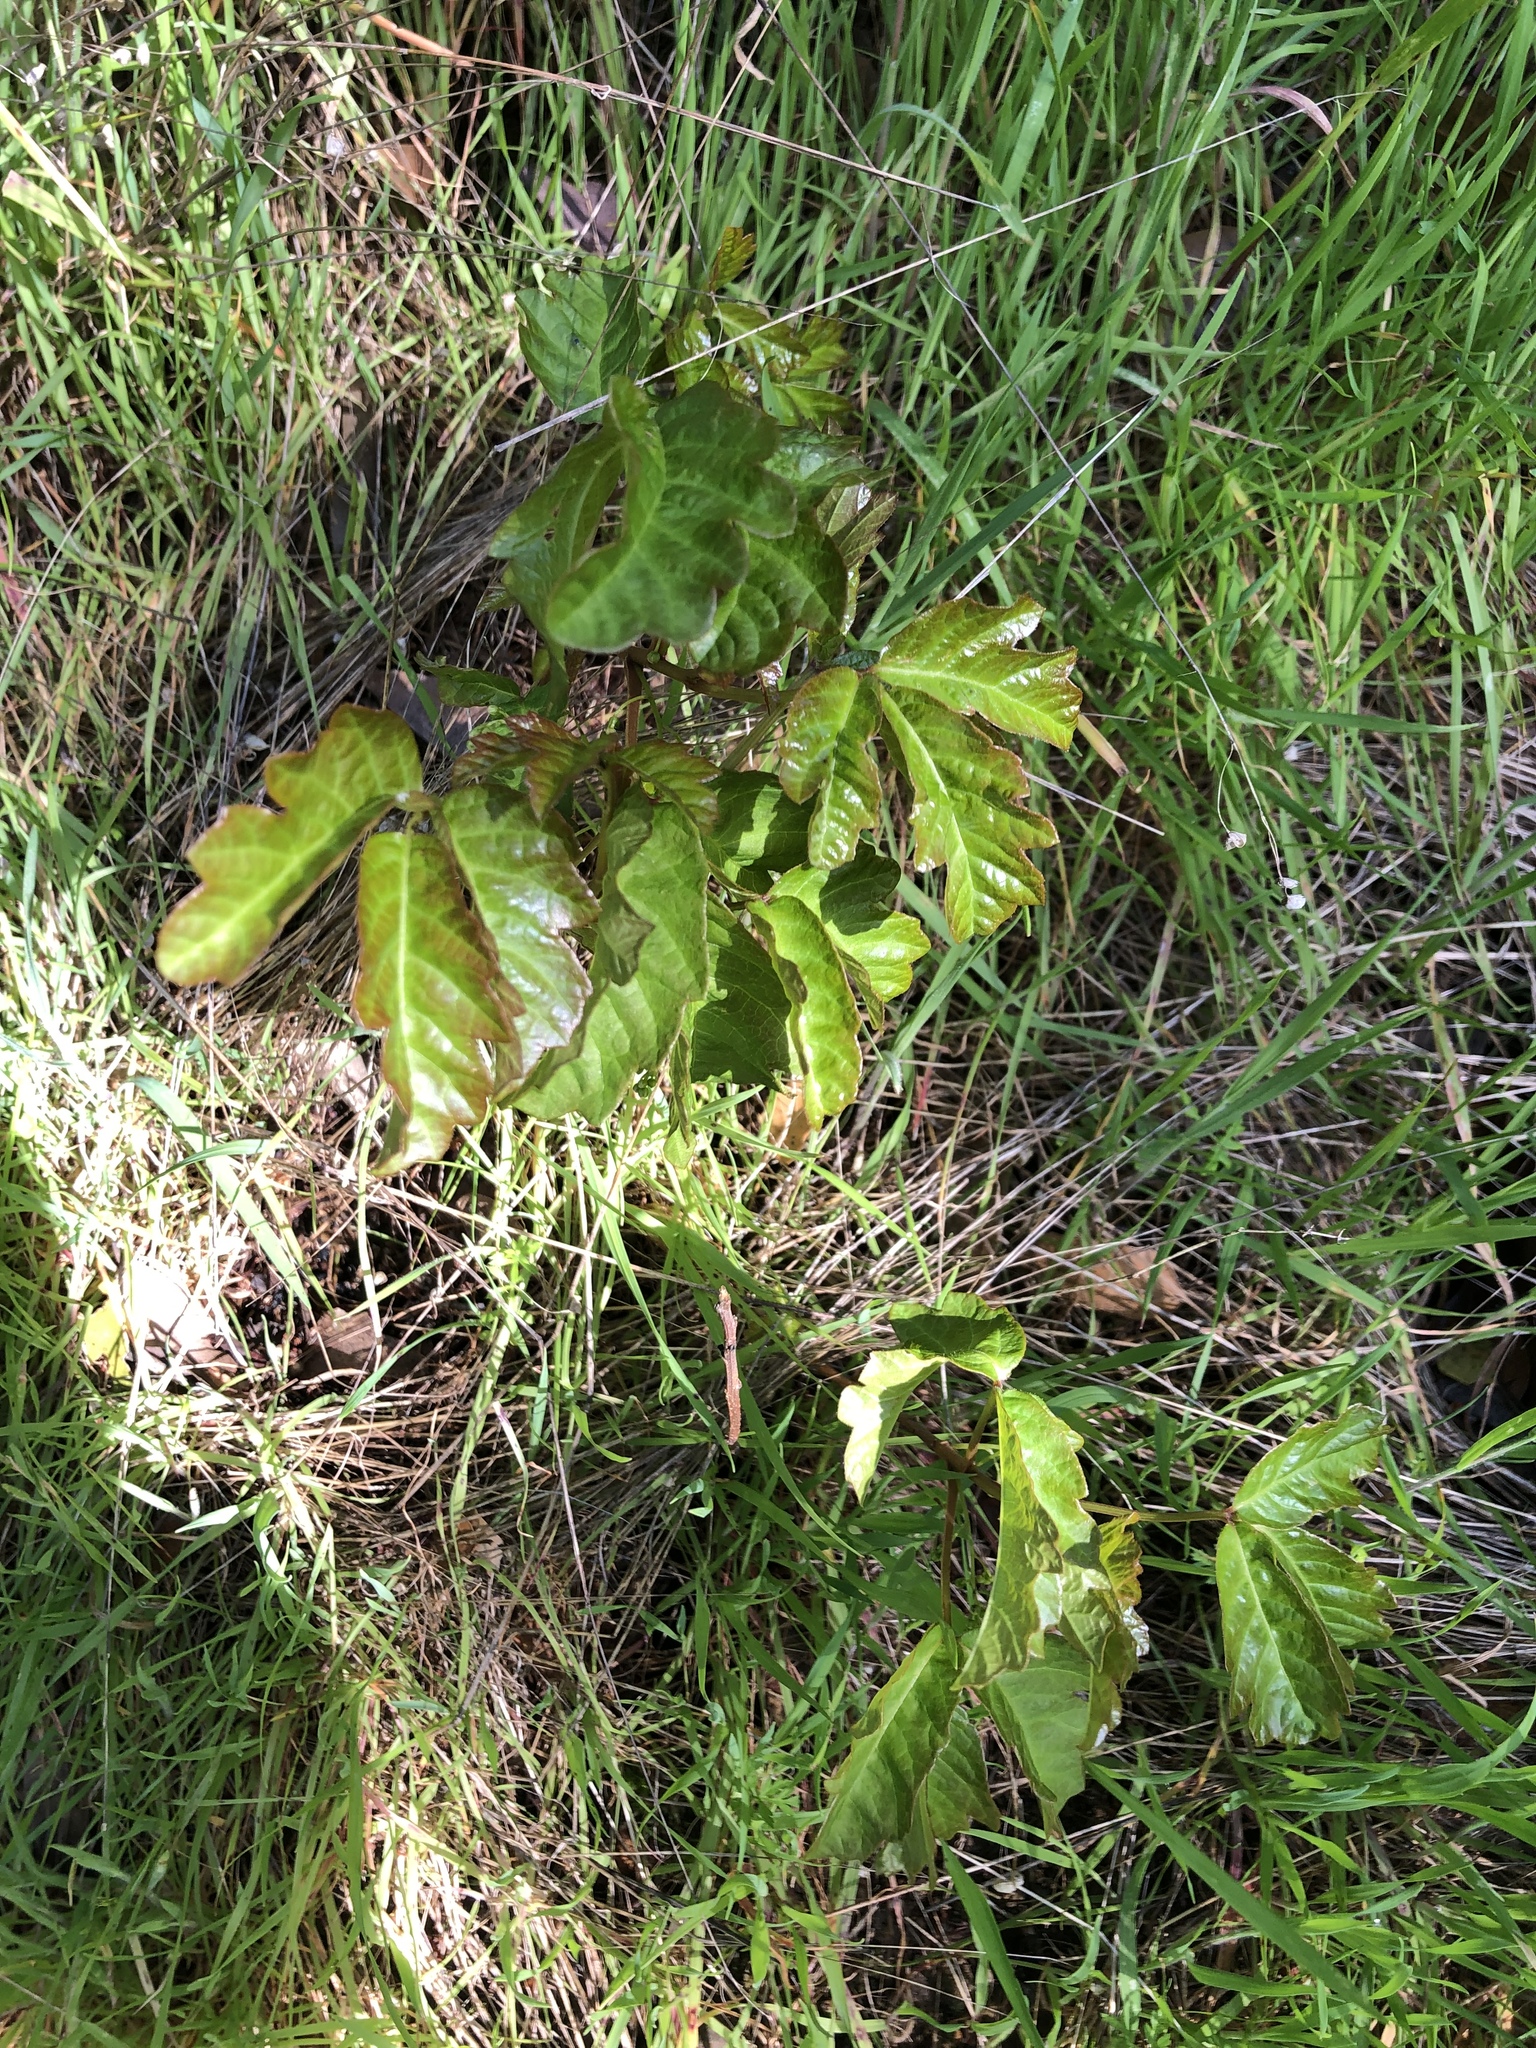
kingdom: Plantae
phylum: Tracheophyta
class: Magnoliopsida
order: Sapindales
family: Anacardiaceae
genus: Toxicodendron
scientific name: Toxicodendron diversilobum
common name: Pacific poison-oak
